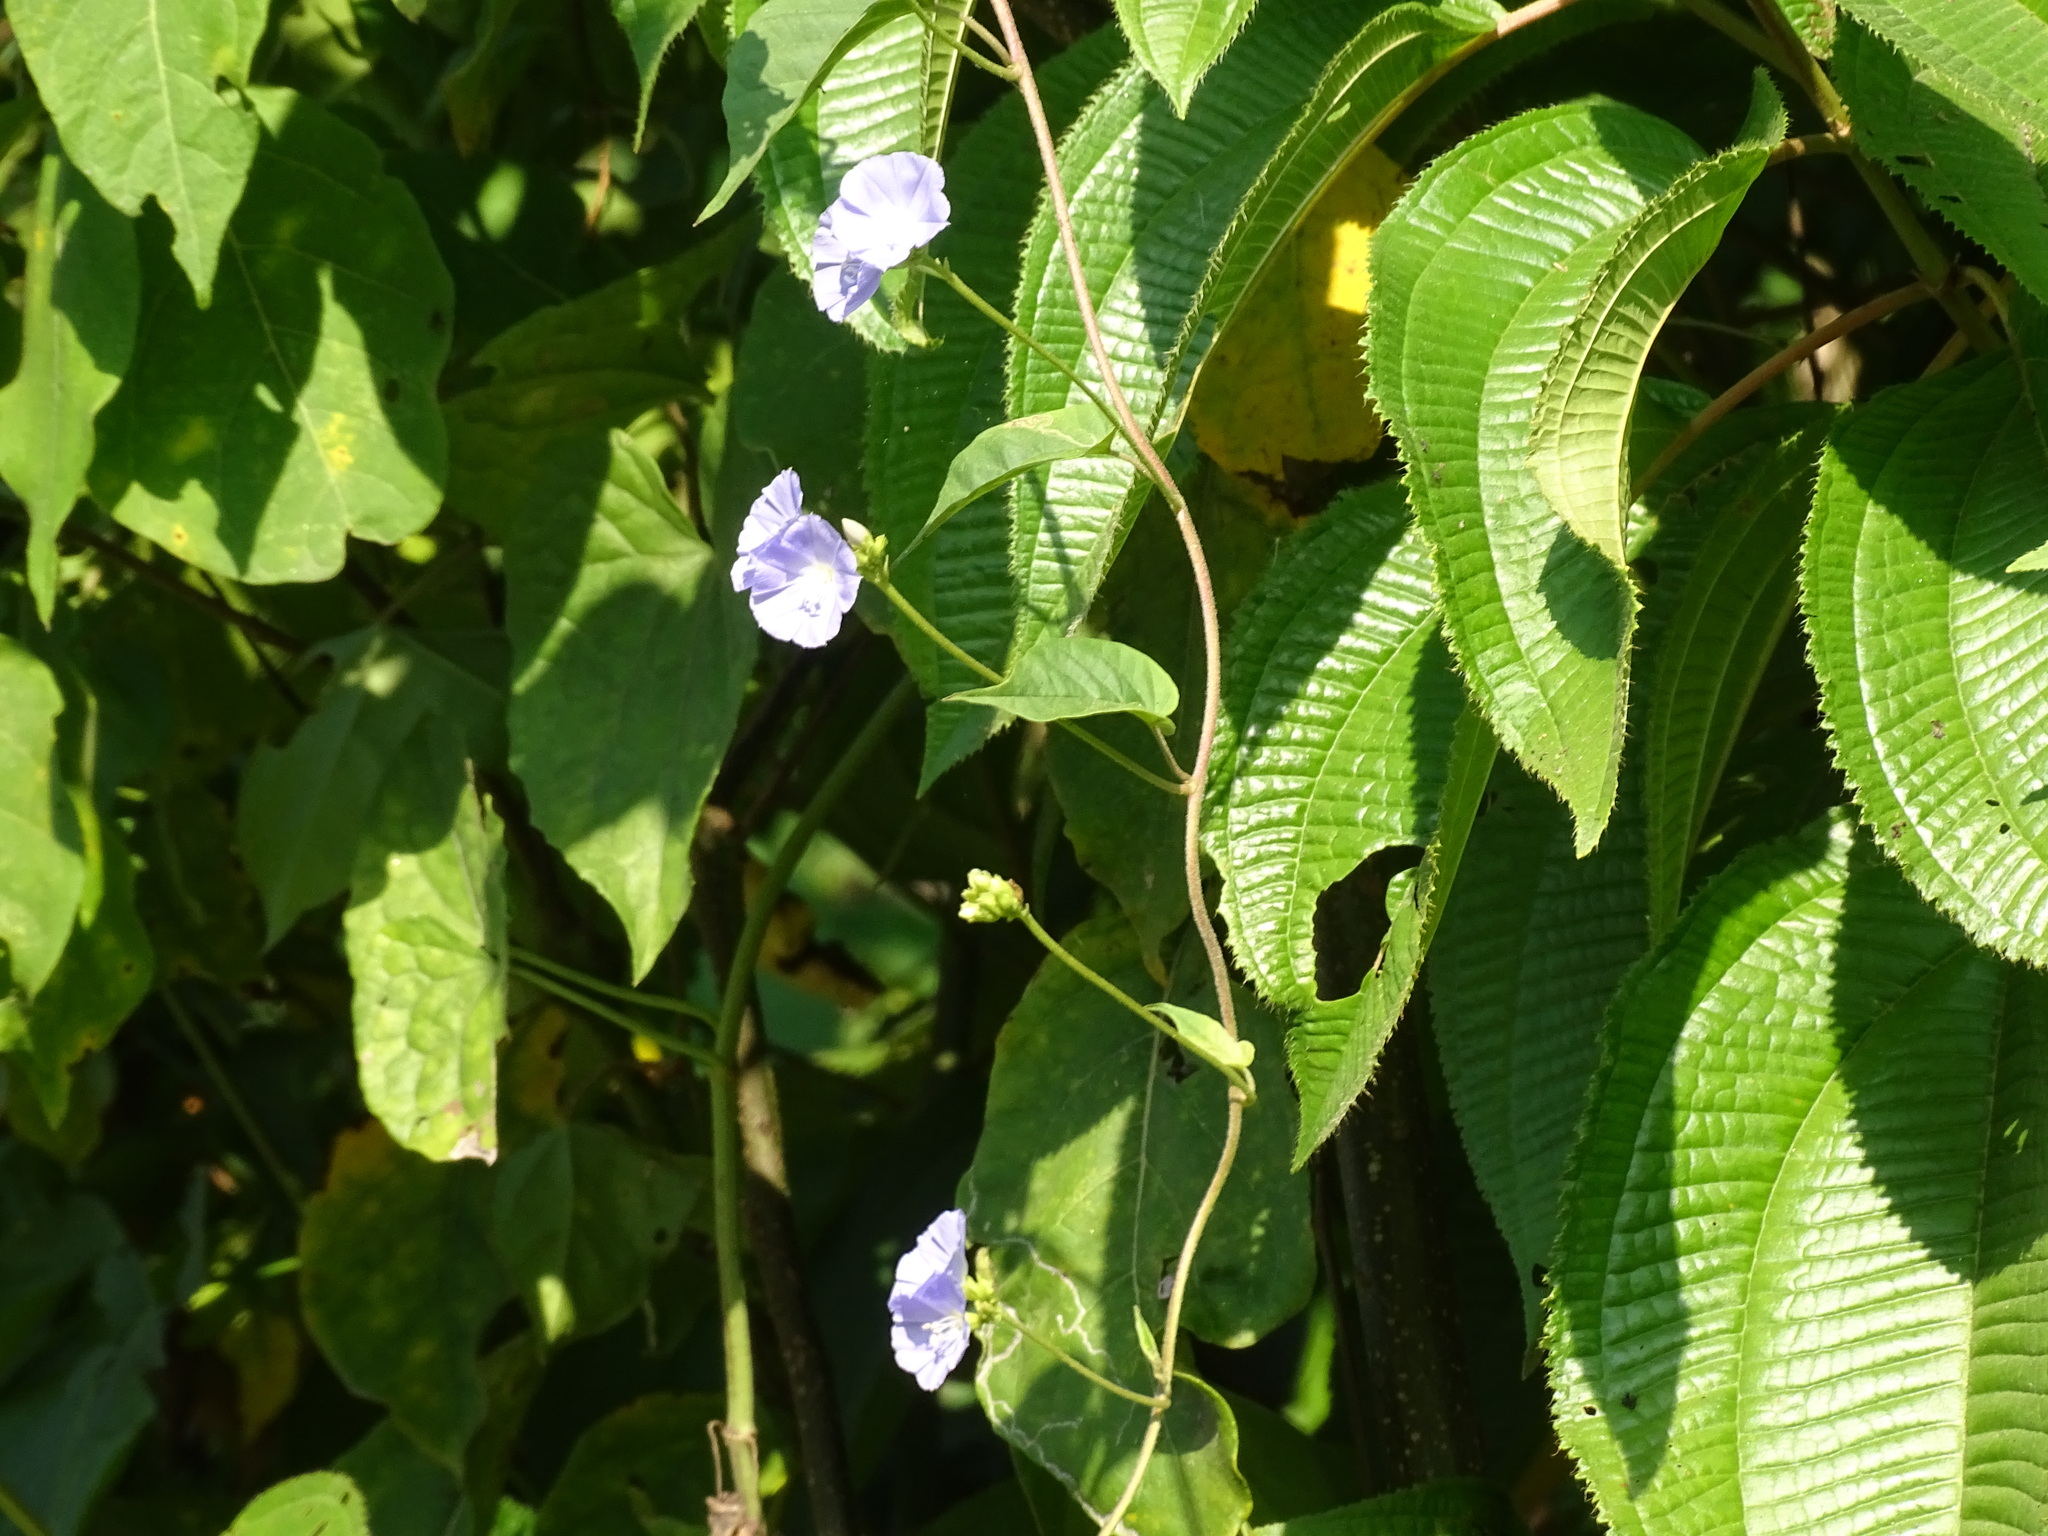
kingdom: Plantae
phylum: Tracheophyta
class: Magnoliopsida
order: Solanales
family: Convolvulaceae
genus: Jacquemontia
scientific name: Jacquemontia oaxacana
